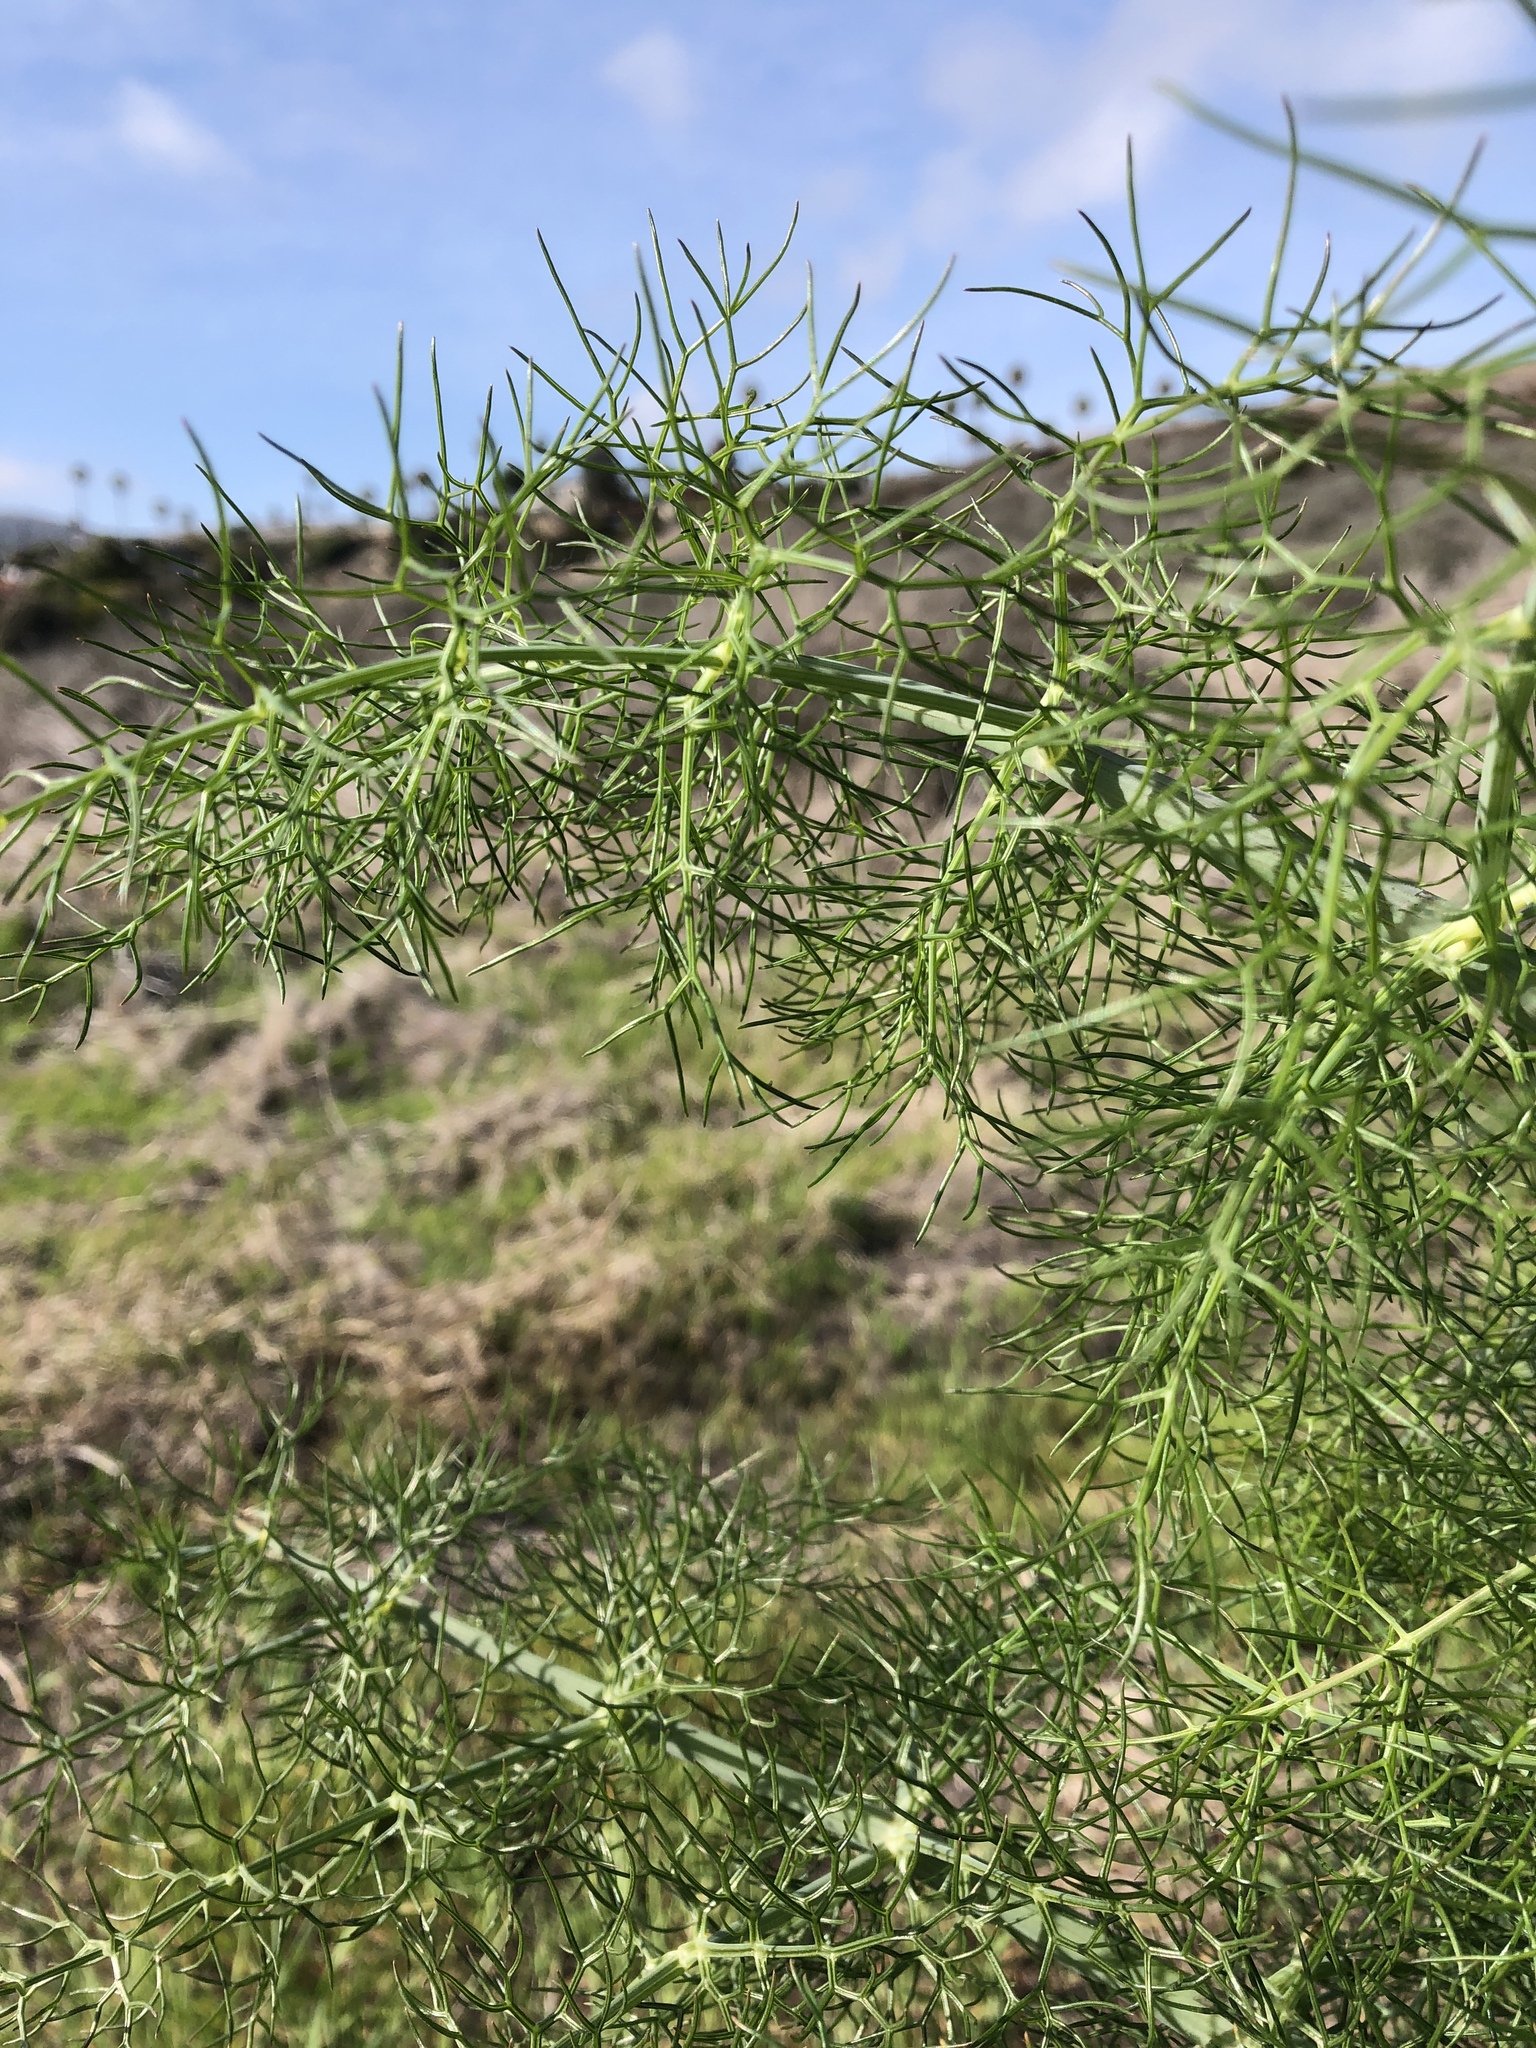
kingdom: Plantae
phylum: Tracheophyta
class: Magnoliopsida
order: Apiales
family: Apiaceae
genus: Foeniculum
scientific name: Foeniculum vulgare
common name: Fennel
